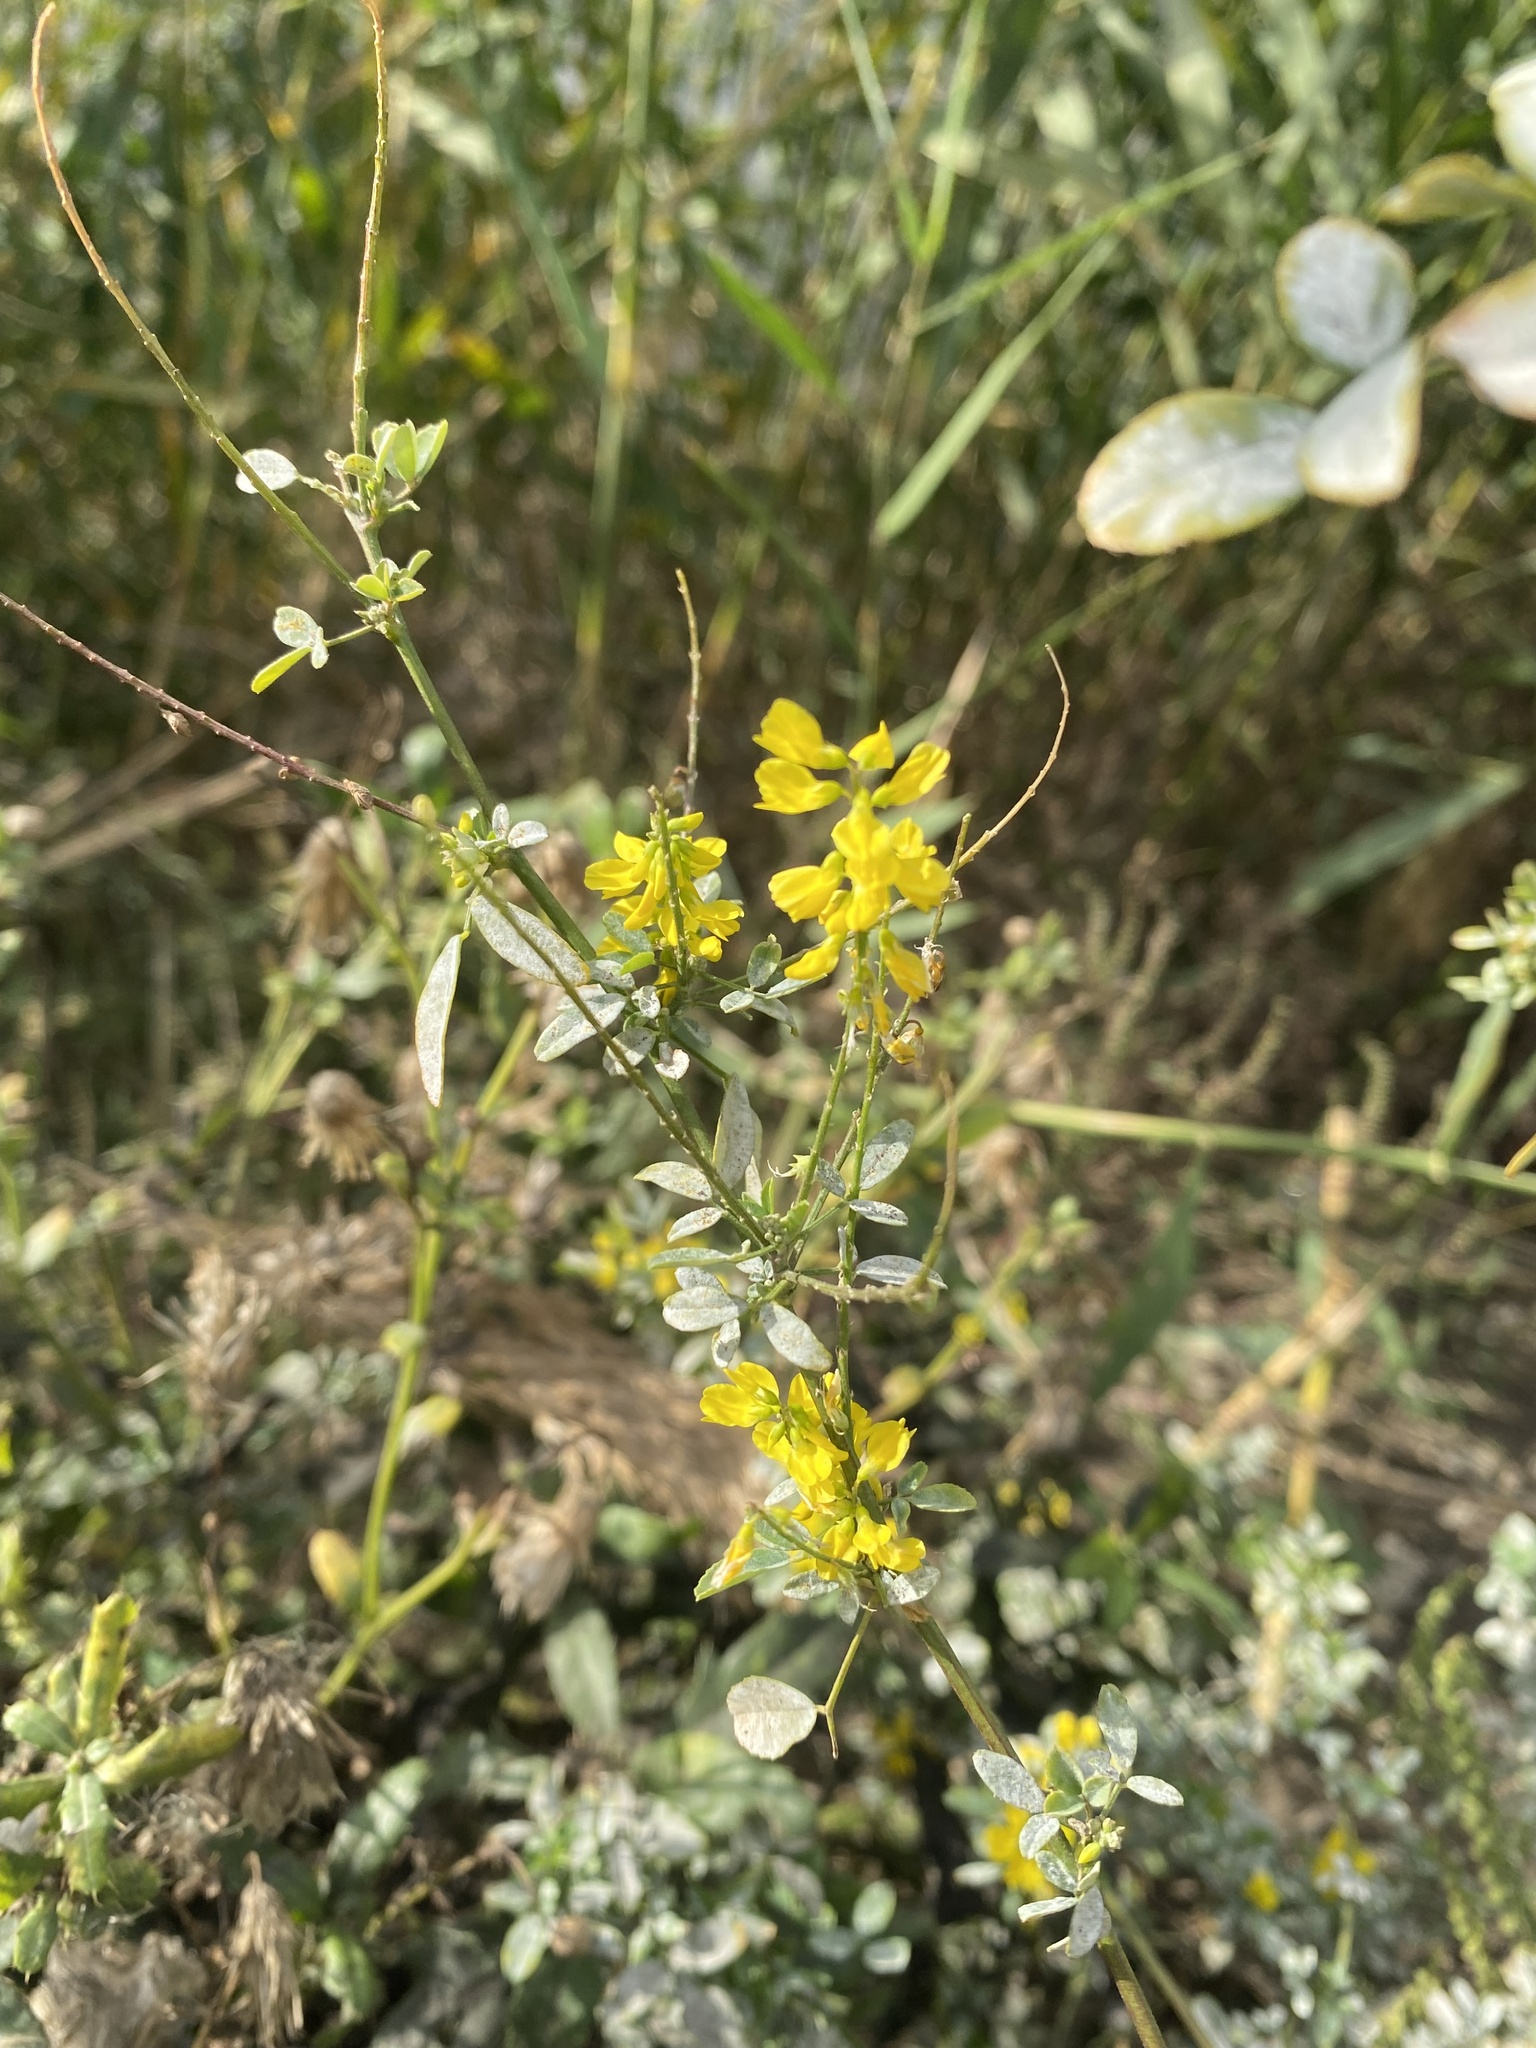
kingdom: Plantae
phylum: Tracheophyta
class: Magnoliopsida
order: Fabales
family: Fabaceae
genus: Melilotus
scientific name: Melilotus officinalis
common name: Sweetclover
